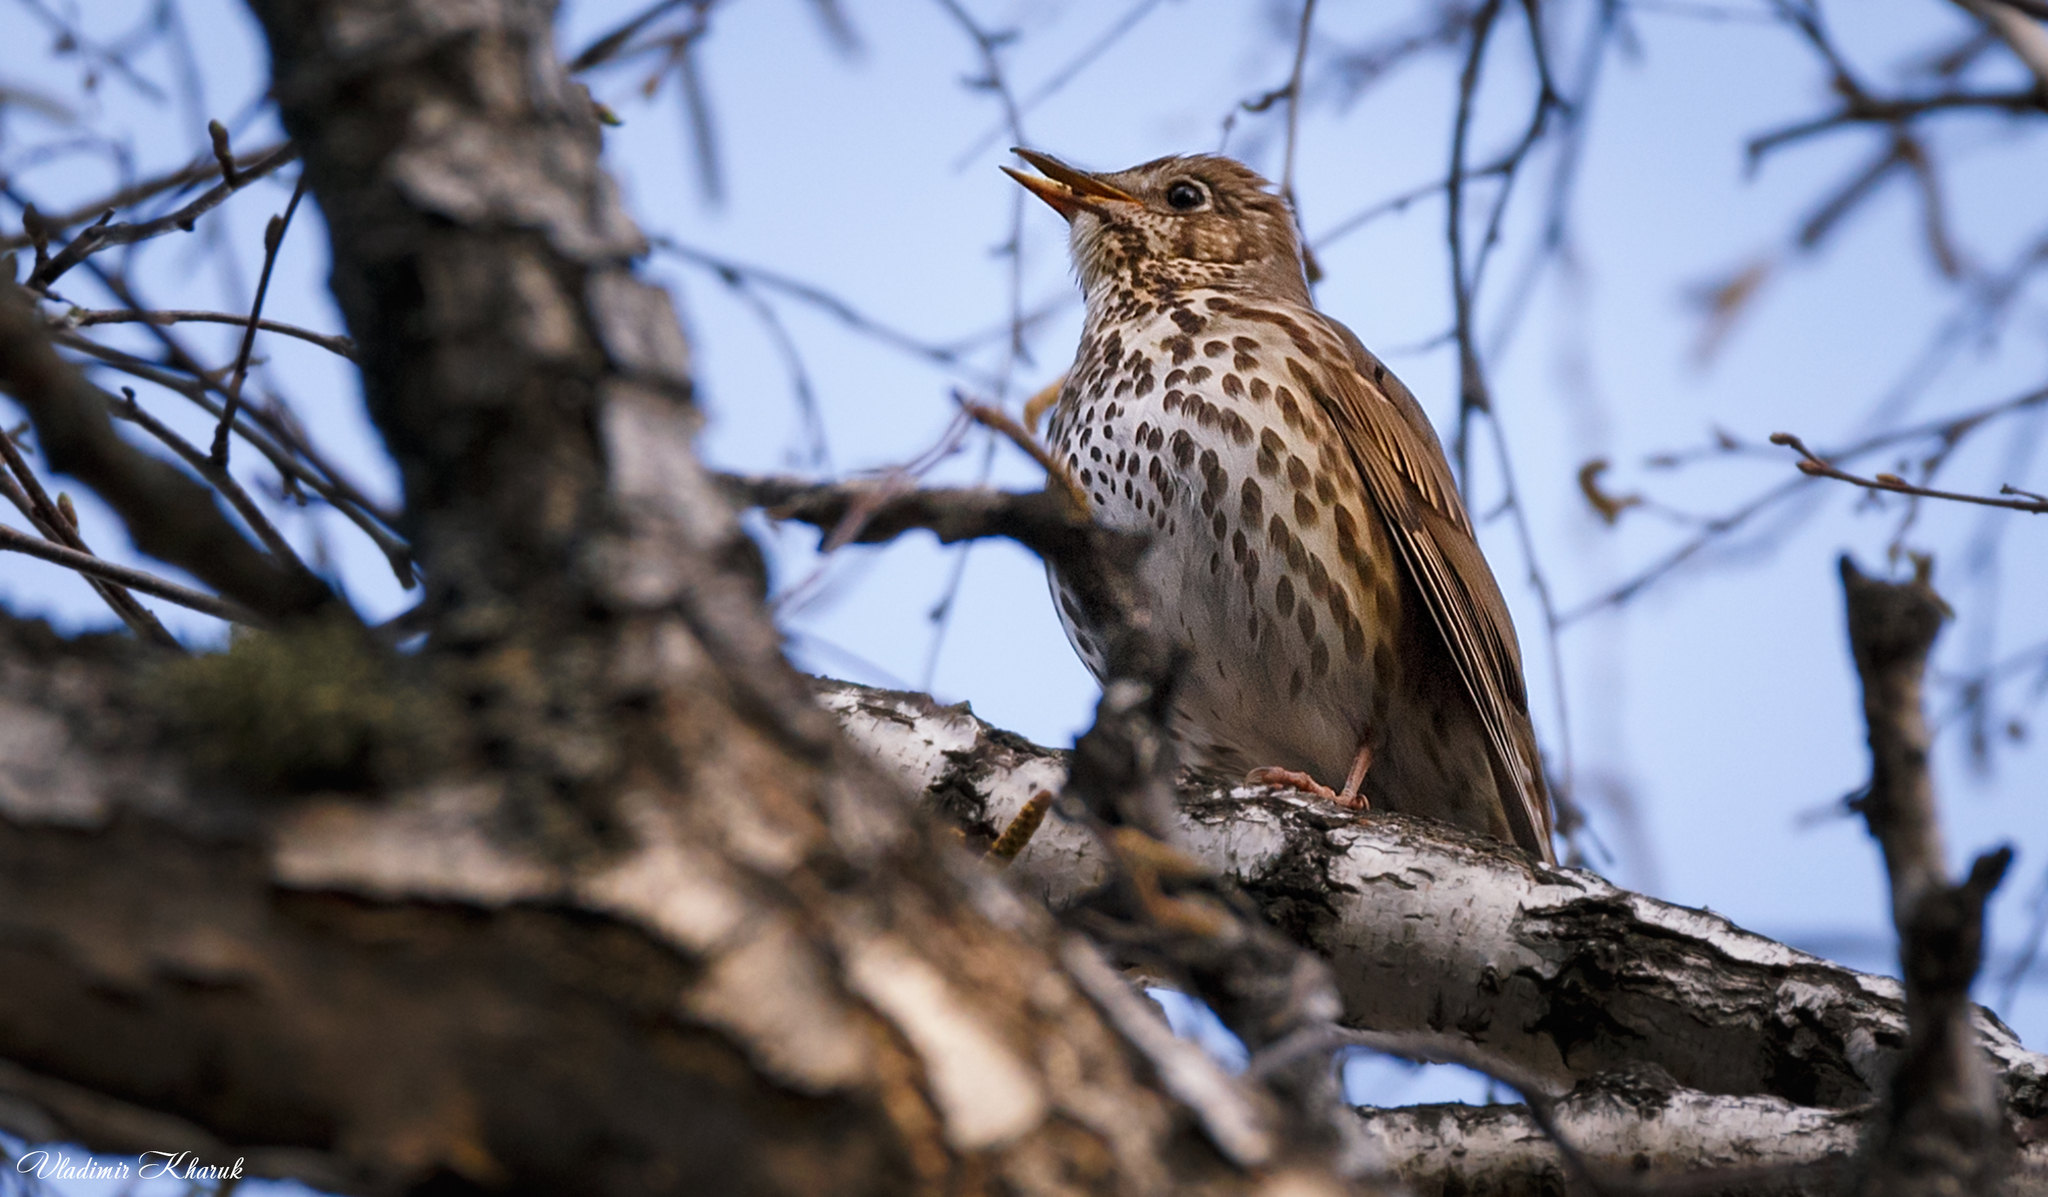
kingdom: Animalia
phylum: Chordata
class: Aves
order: Passeriformes
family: Turdidae
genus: Turdus
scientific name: Turdus philomelos
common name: Song thrush
